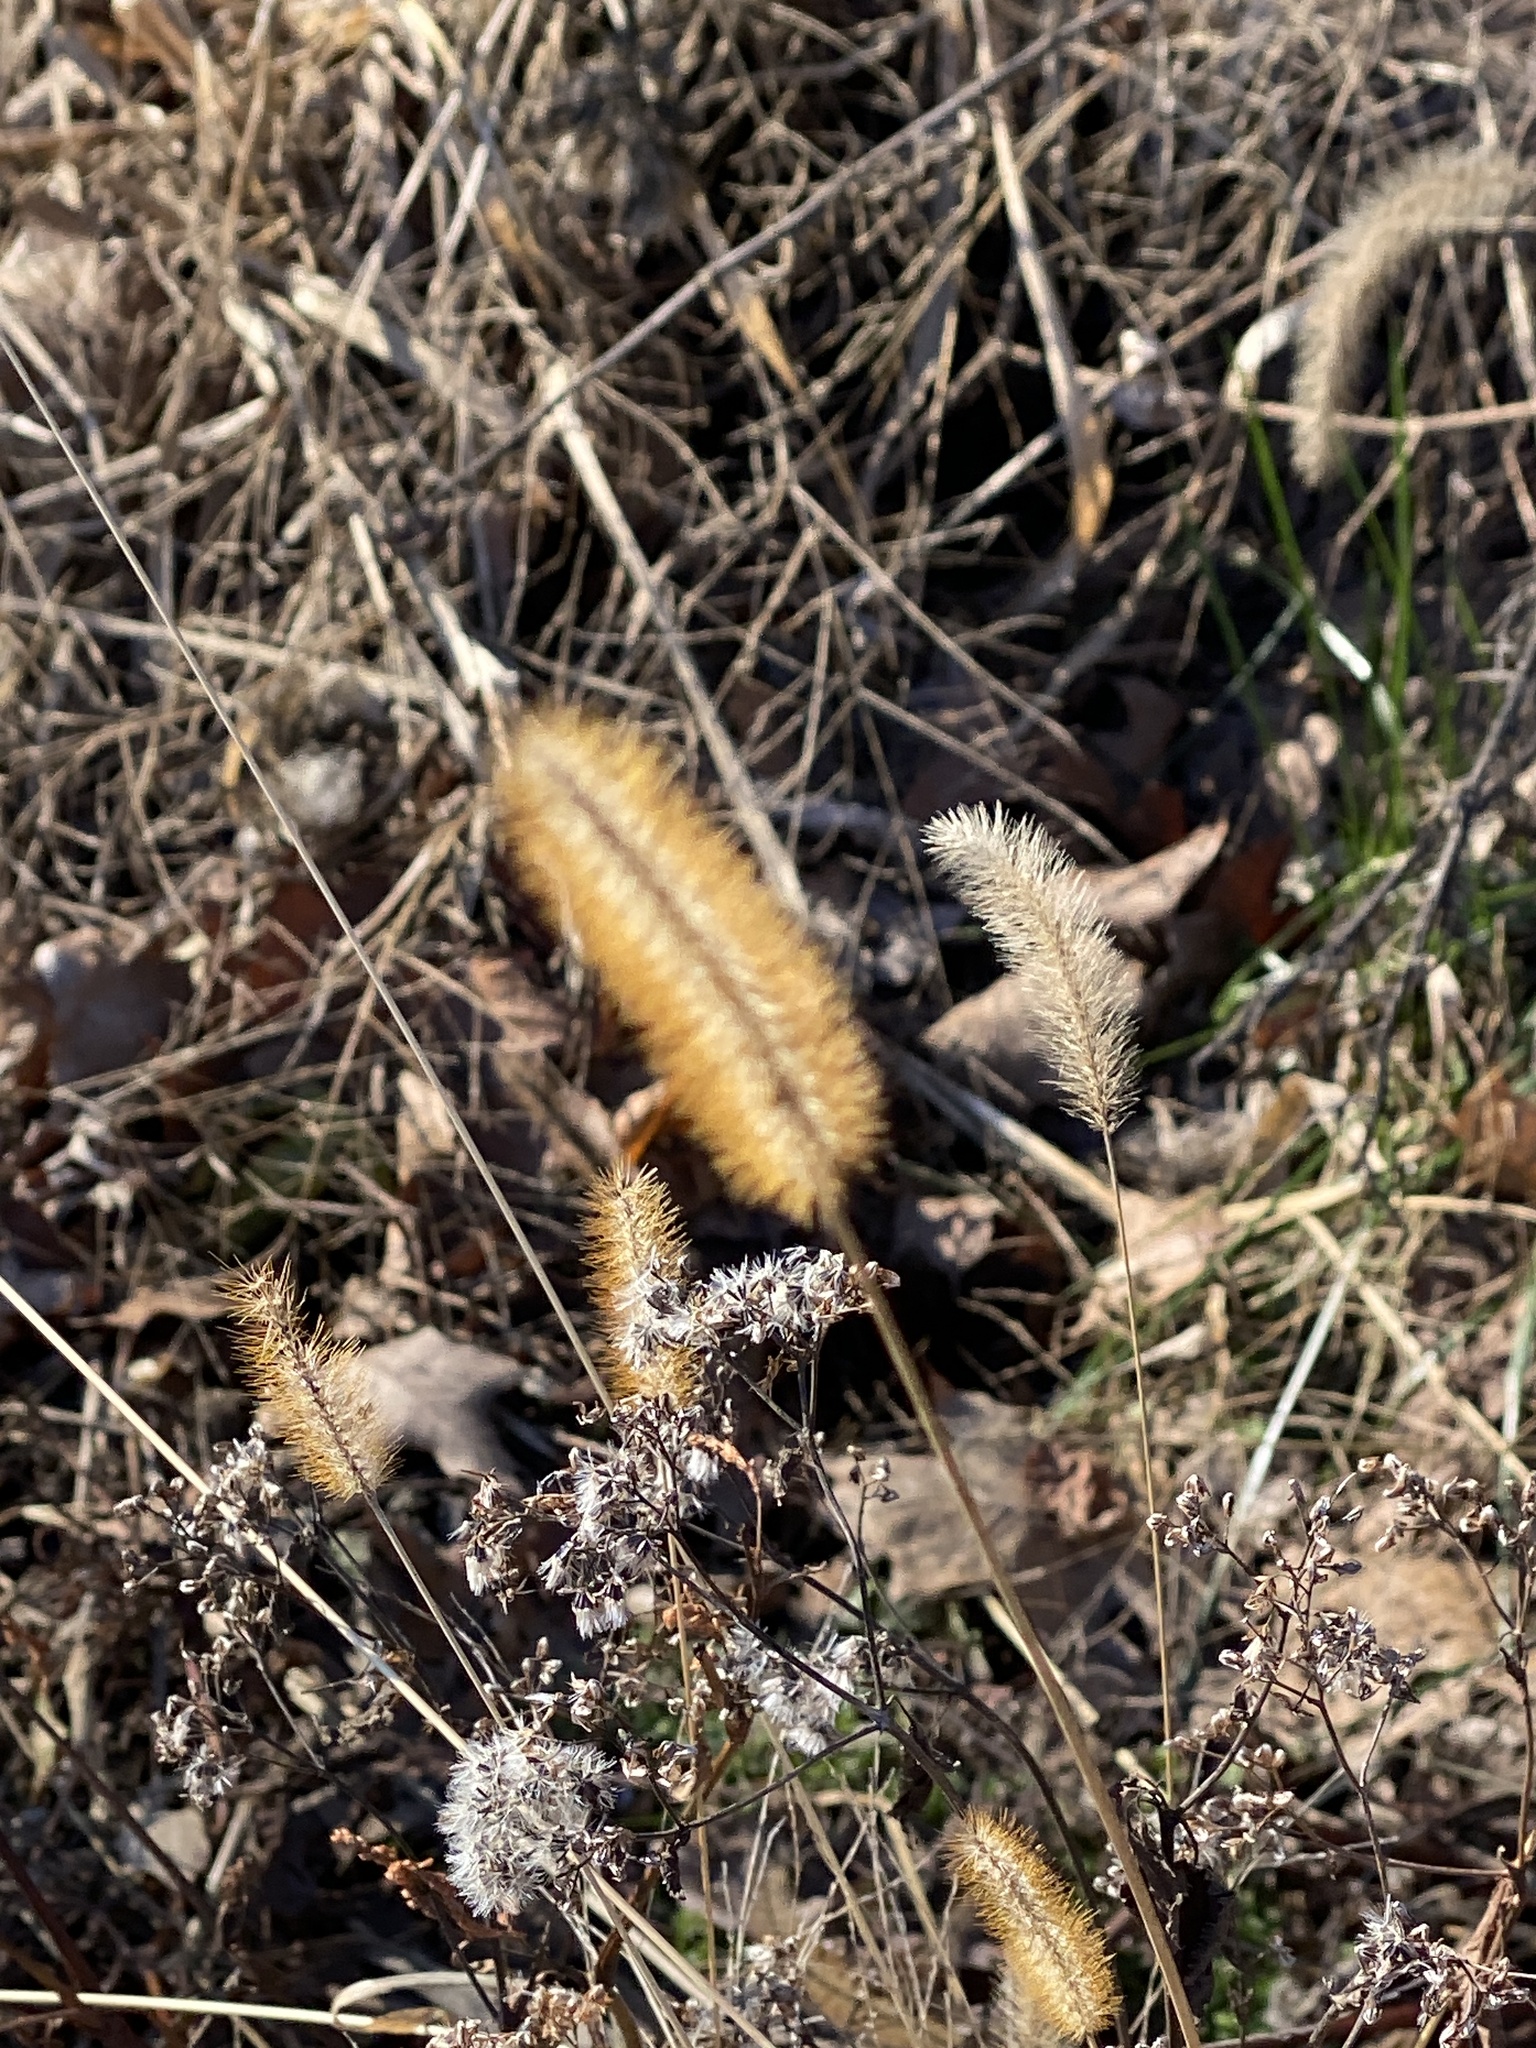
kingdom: Plantae
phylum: Tracheophyta
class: Liliopsida
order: Poales
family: Poaceae
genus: Setaria
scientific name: Setaria pumila
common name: Yellow bristle-grass
